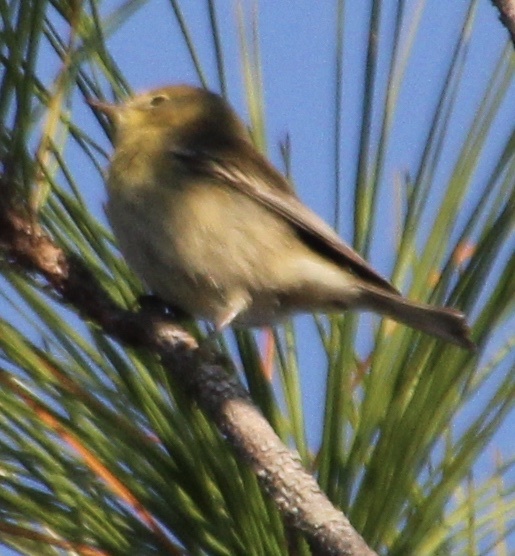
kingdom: Animalia
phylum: Chordata
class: Aves
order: Passeriformes
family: Parulidae
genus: Setophaga
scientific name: Setophaga pinus
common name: Pine warbler
